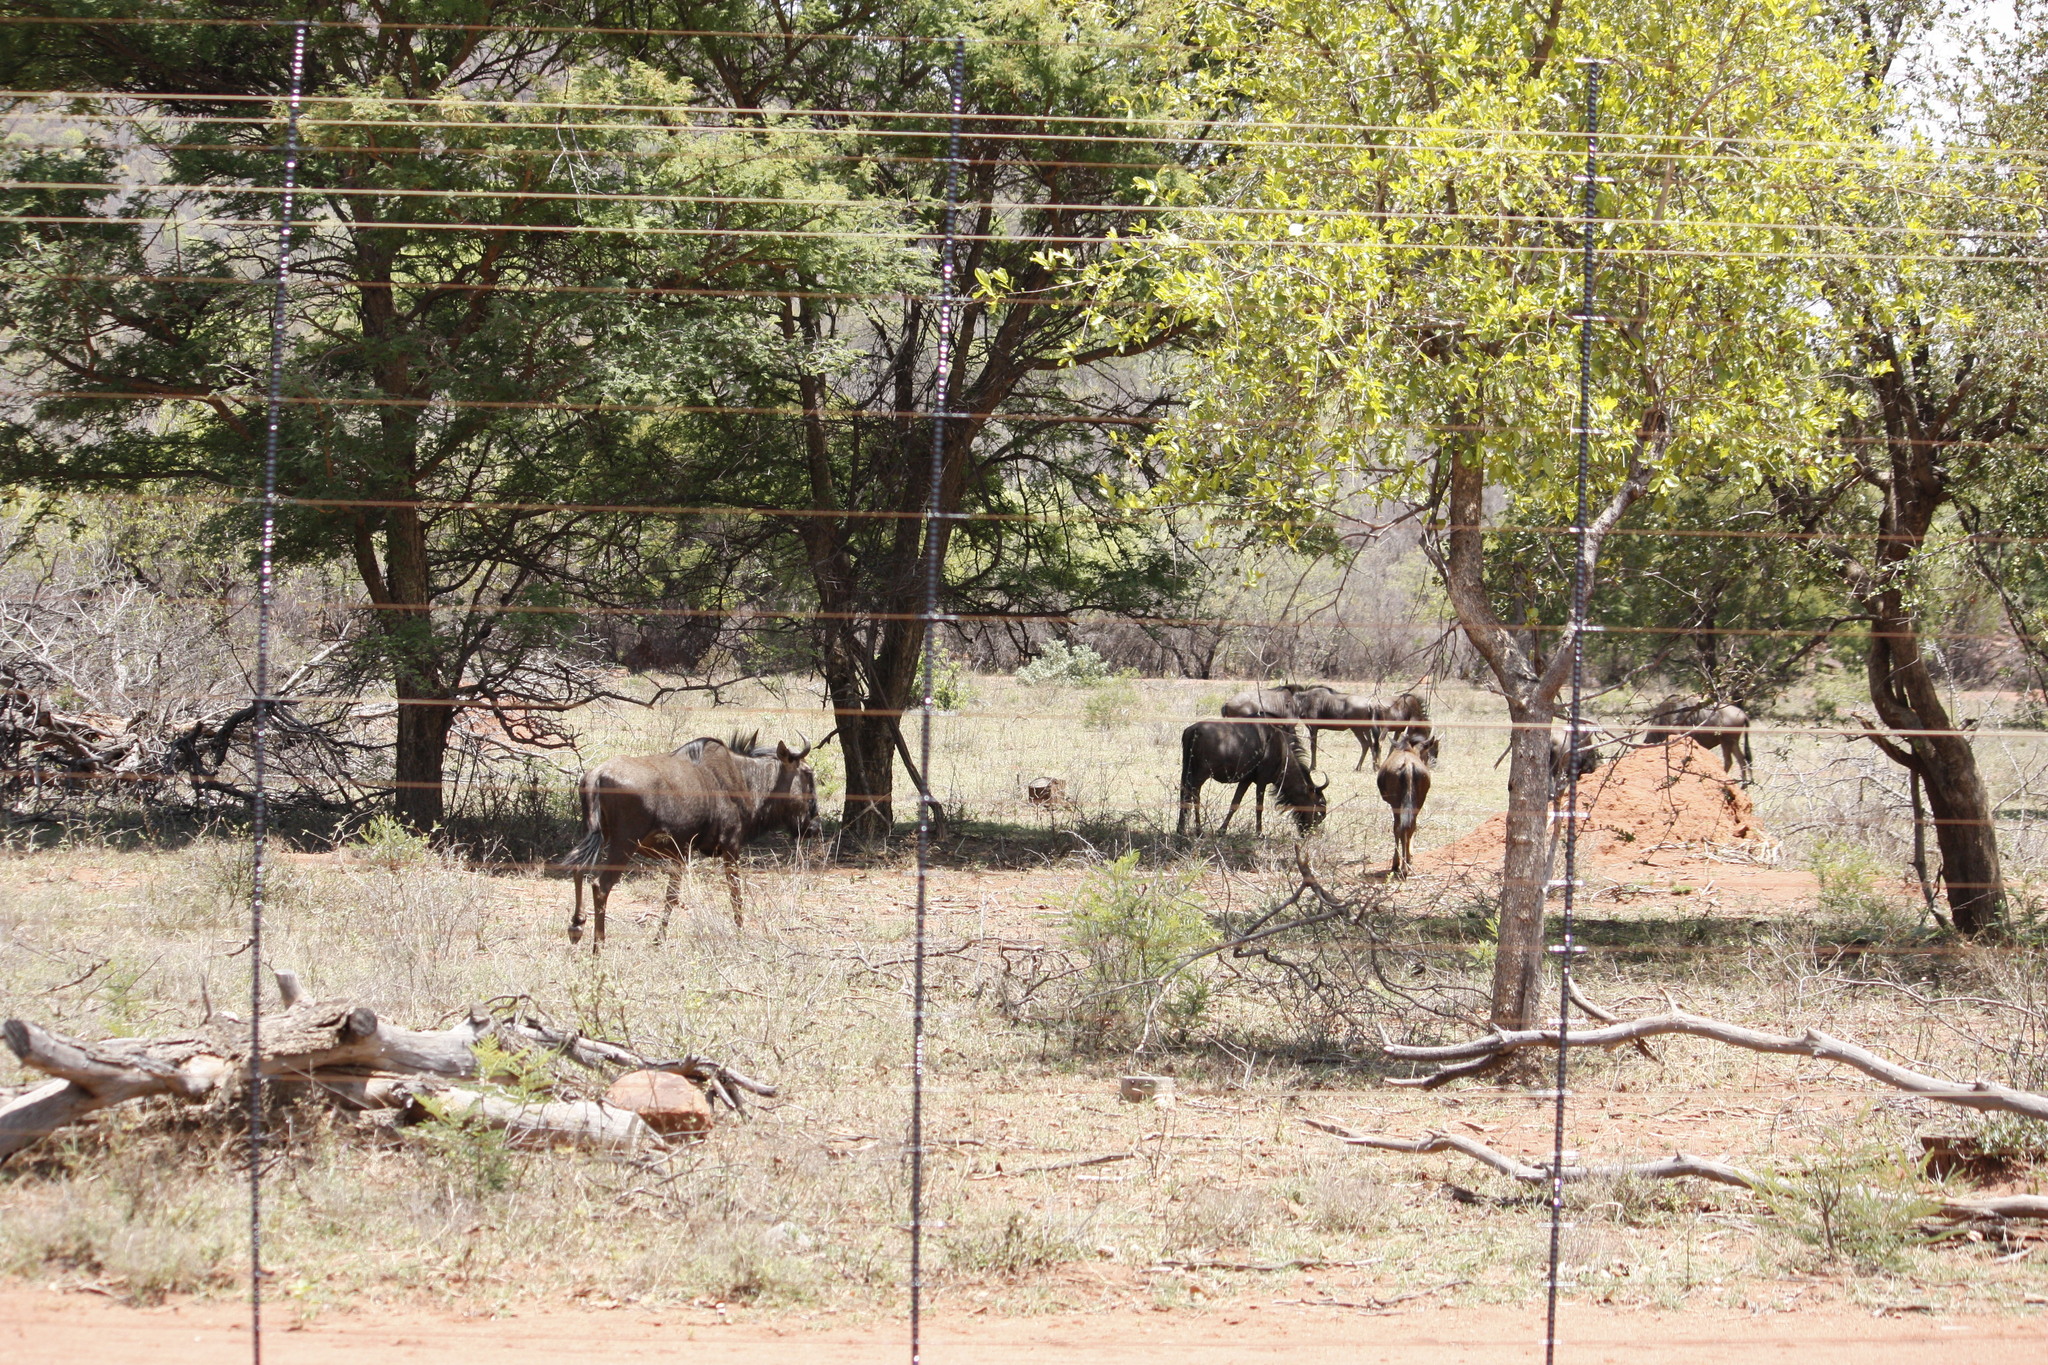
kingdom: Animalia
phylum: Chordata
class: Mammalia
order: Artiodactyla
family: Bovidae
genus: Connochaetes
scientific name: Connochaetes taurinus
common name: Blue wildebeest
